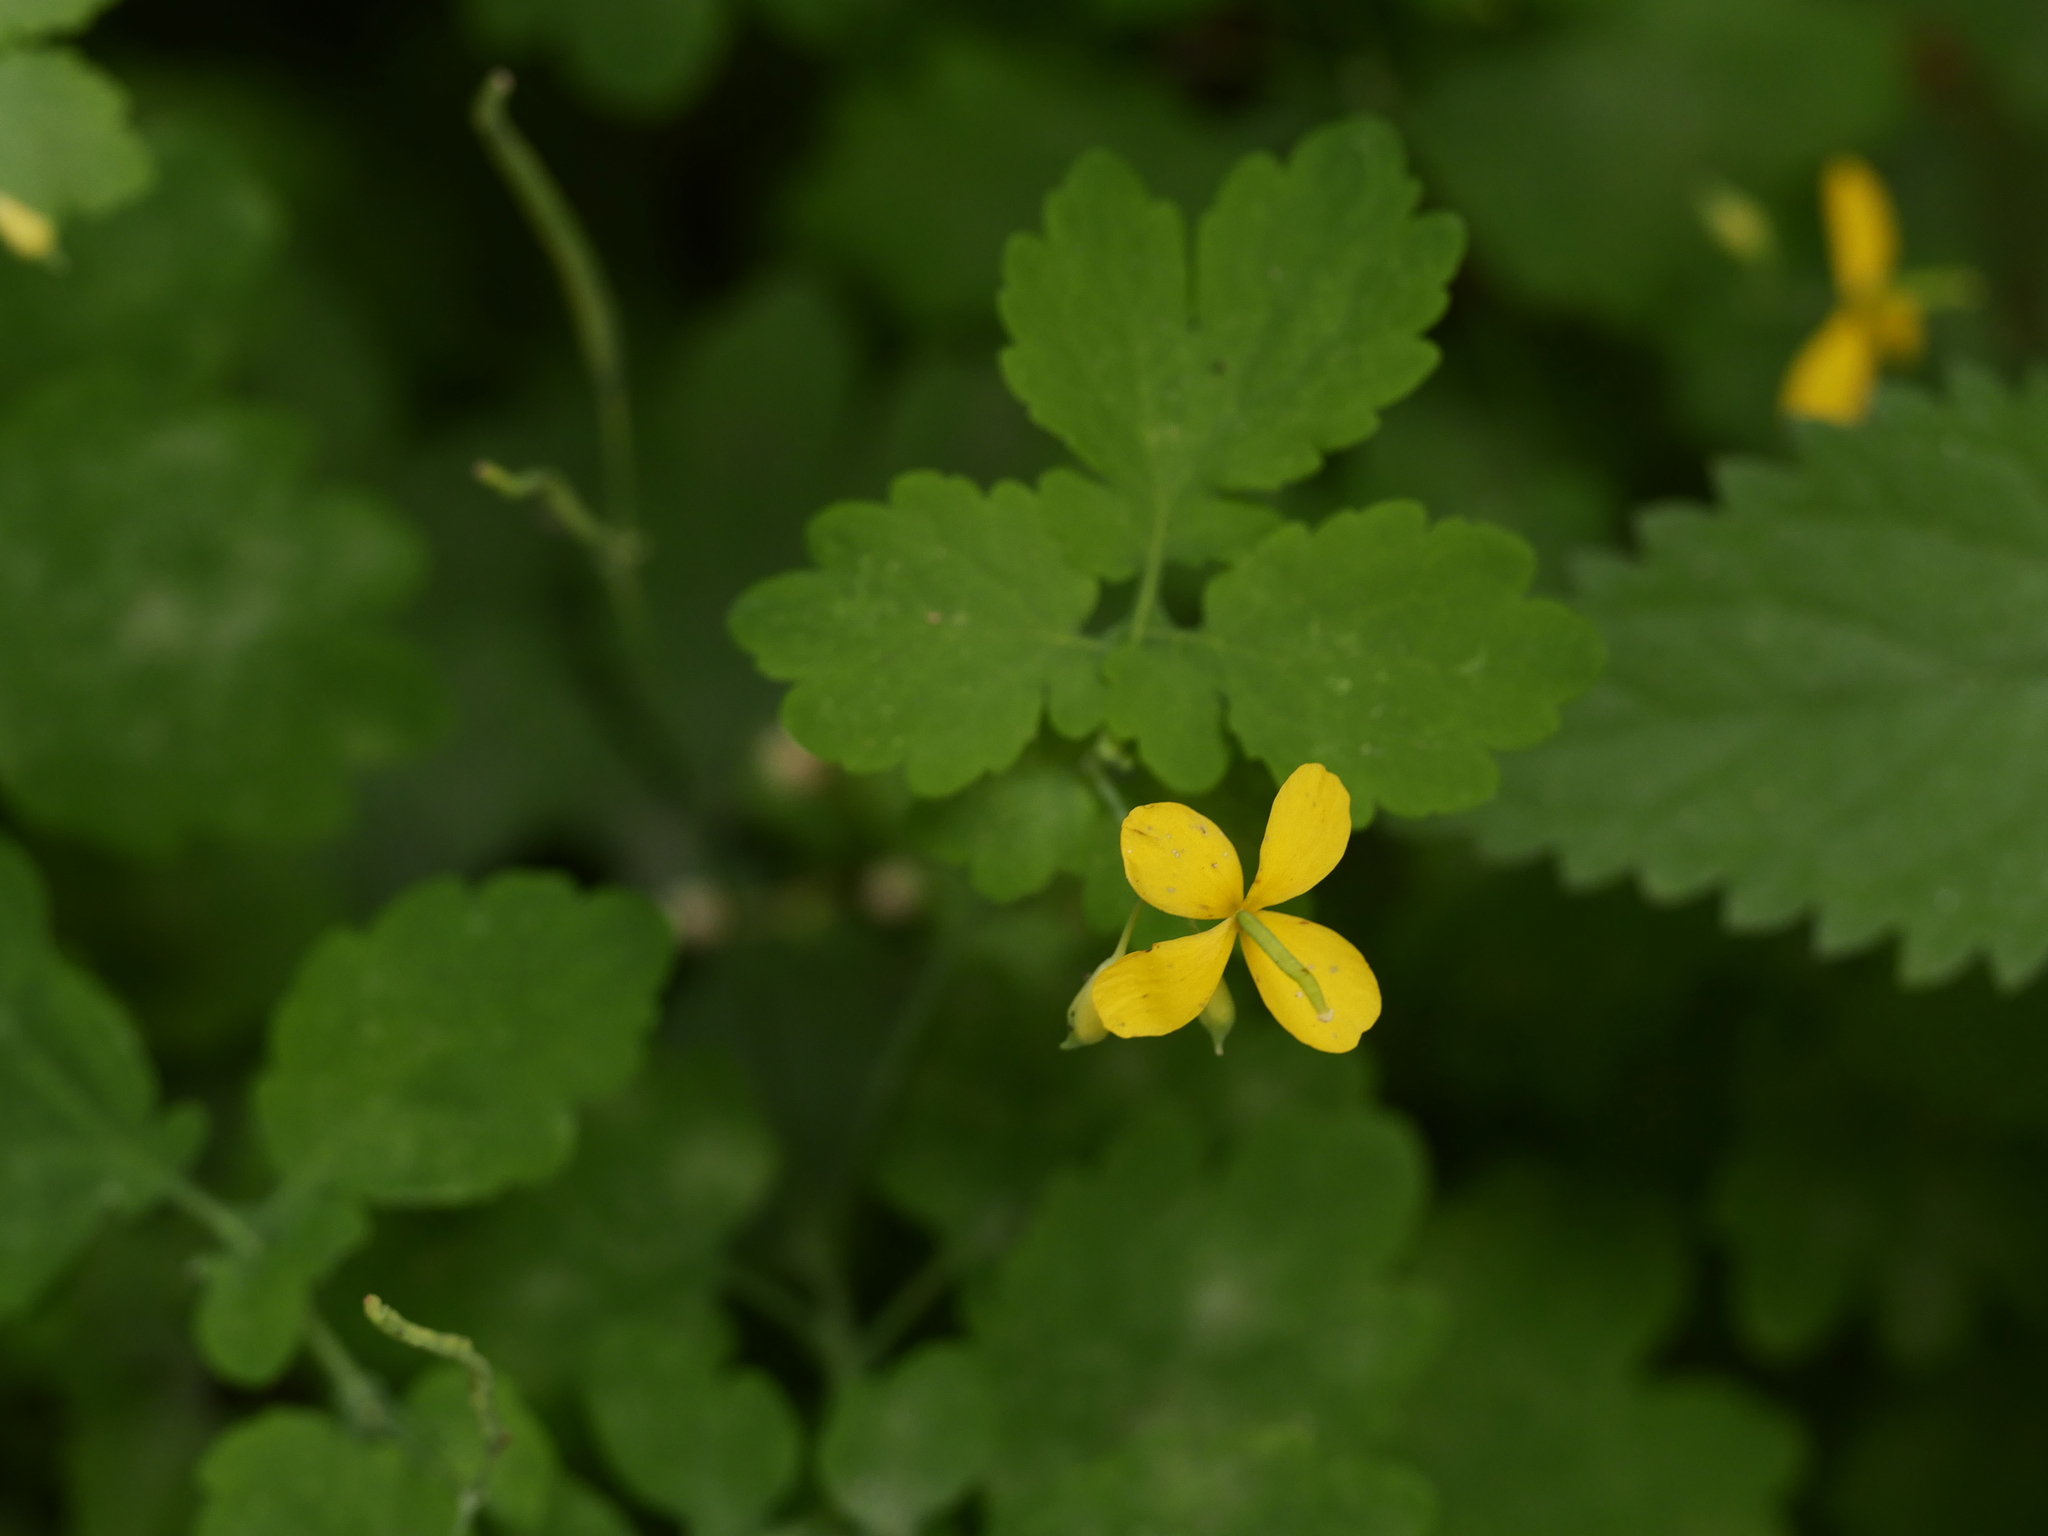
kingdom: Plantae
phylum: Tracheophyta
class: Magnoliopsida
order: Ranunculales
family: Papaveraceae
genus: Chelidonium
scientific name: Chelidonium majus
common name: Greater celandine
